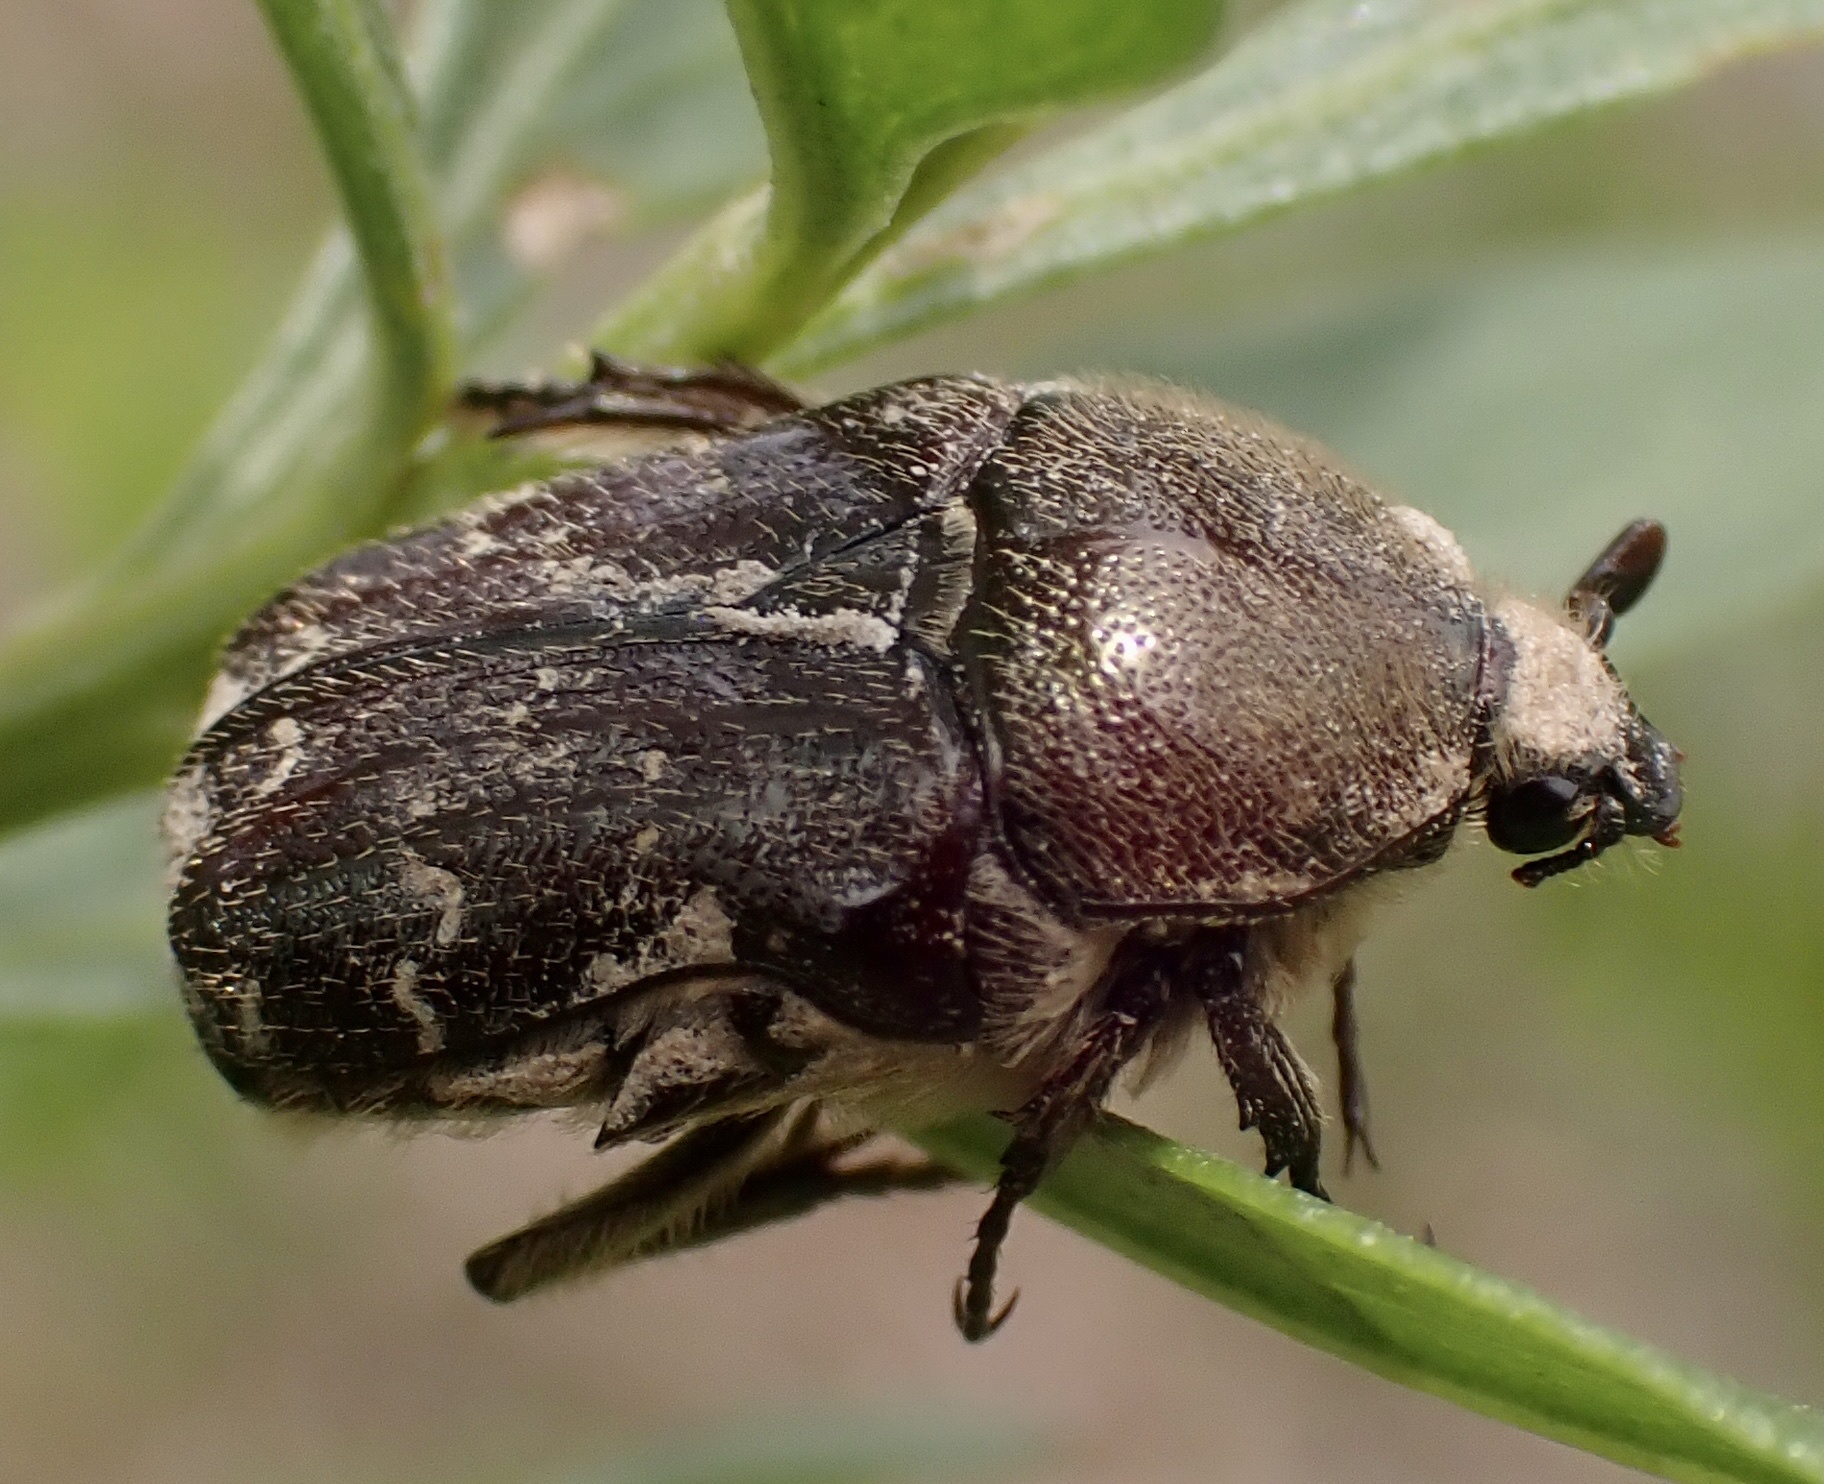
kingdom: Animalia
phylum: Arthropoda
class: Insecta
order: Coleoptera
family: Scarabaeidae
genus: Euphoria
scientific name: Euphoria sepulcralis
